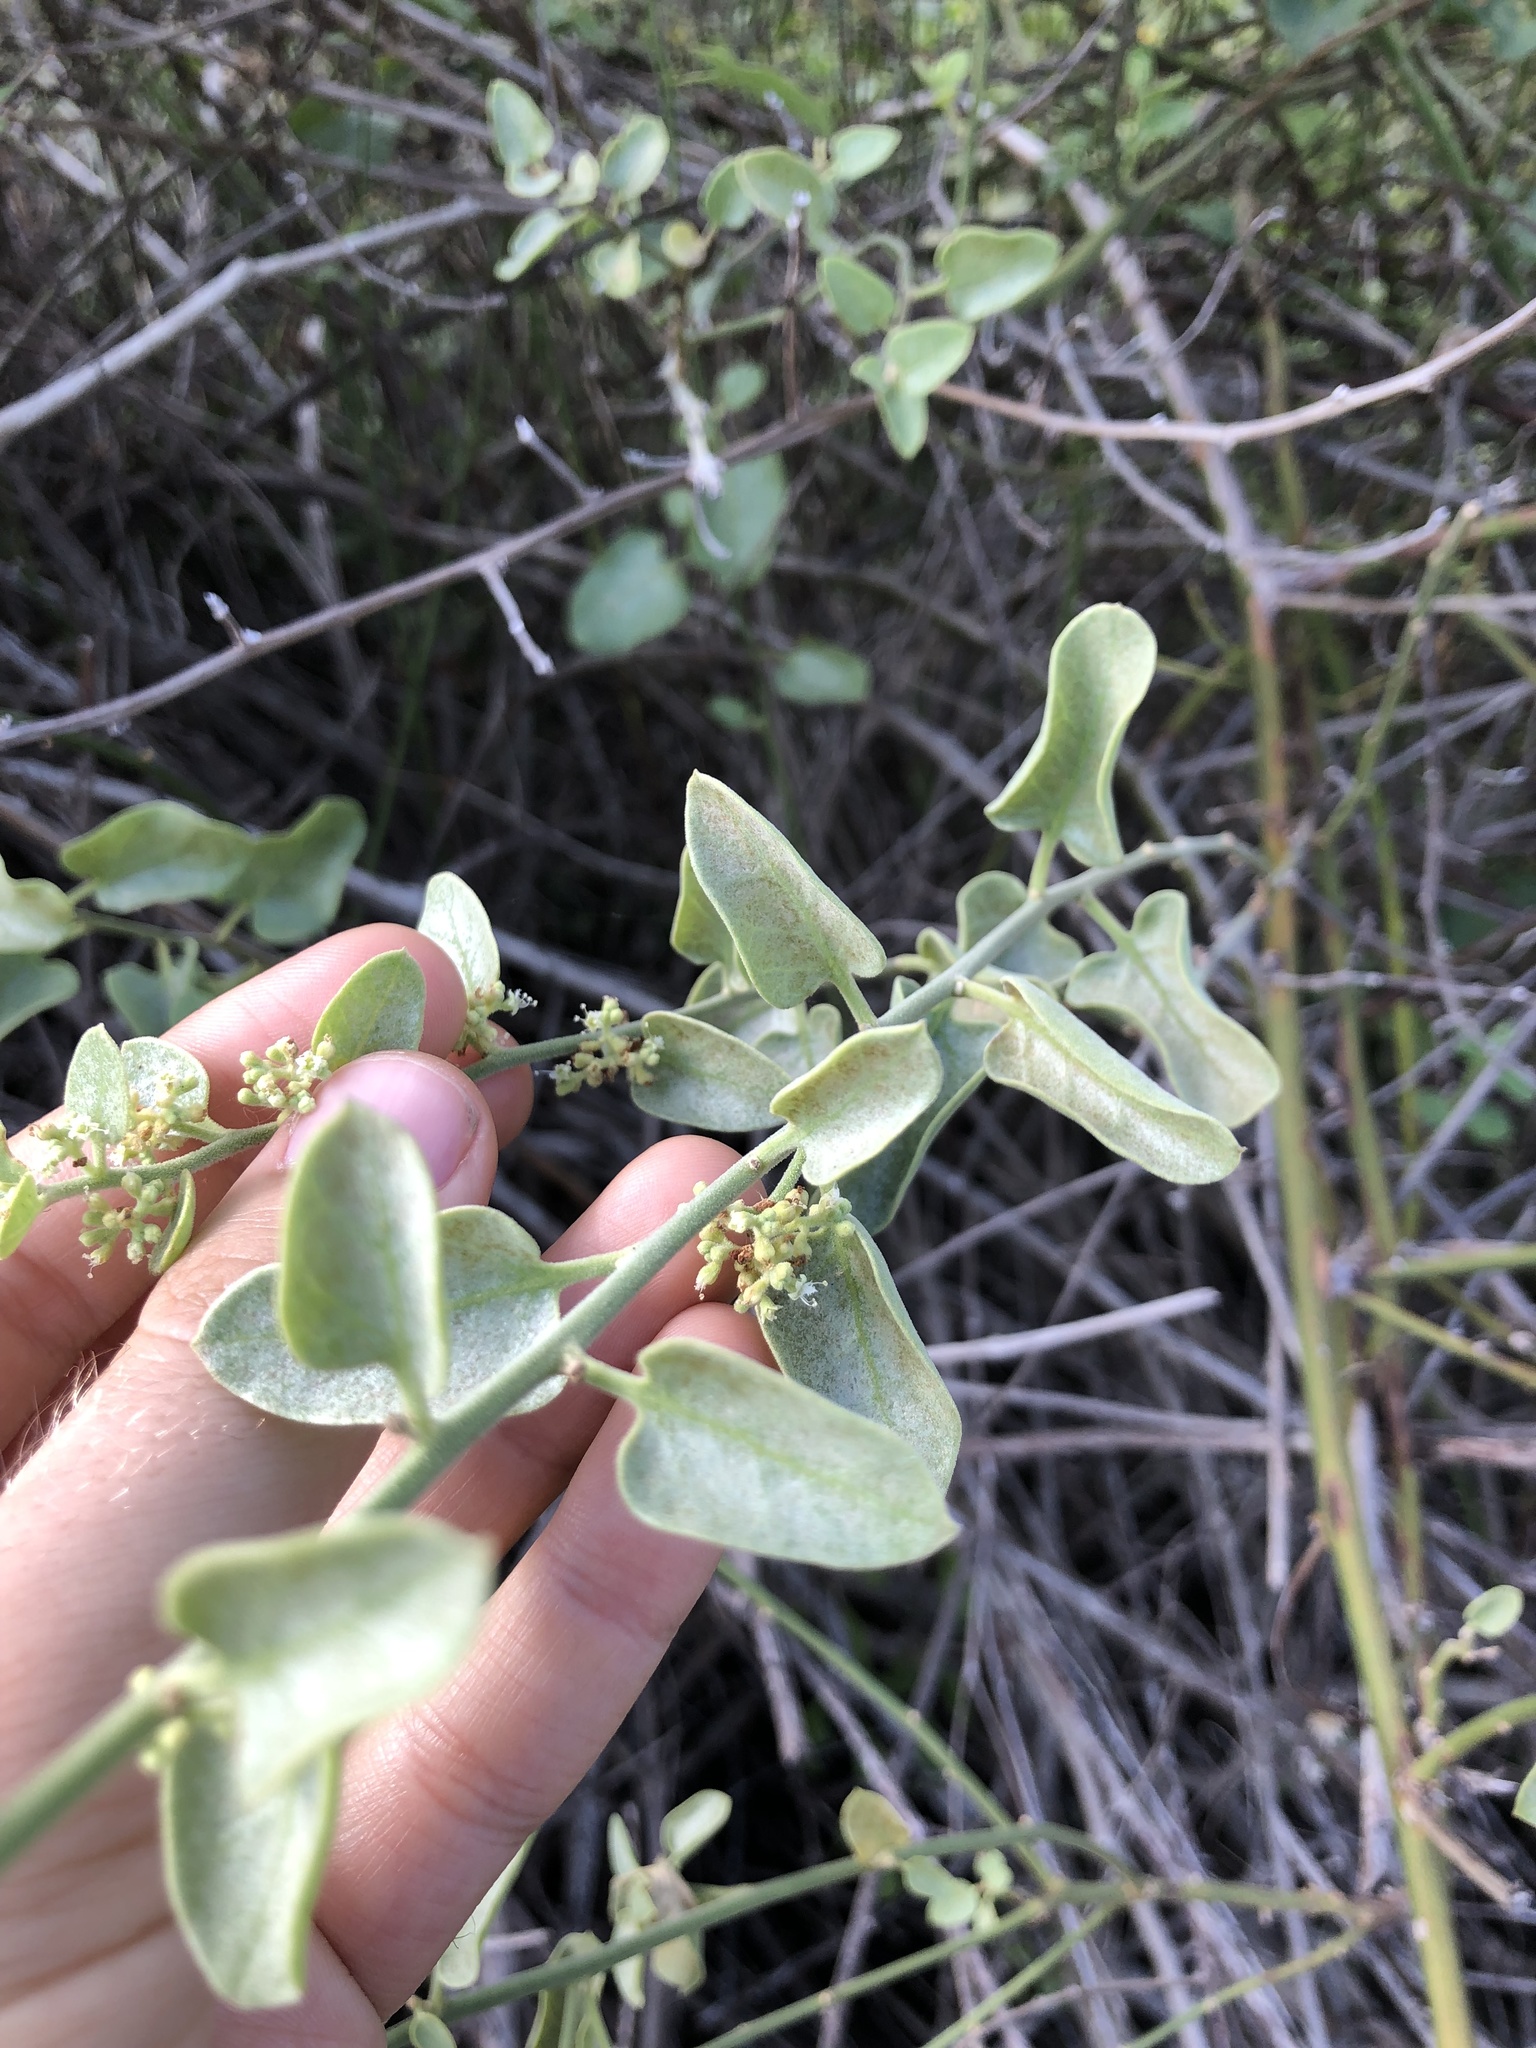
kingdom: Plantae
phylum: Tracheophyta
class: Magnoliopsida
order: Caryophyllales
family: Nyctaginaceae
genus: Cryptocarpus
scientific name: Cryptocarpus pyriformis
